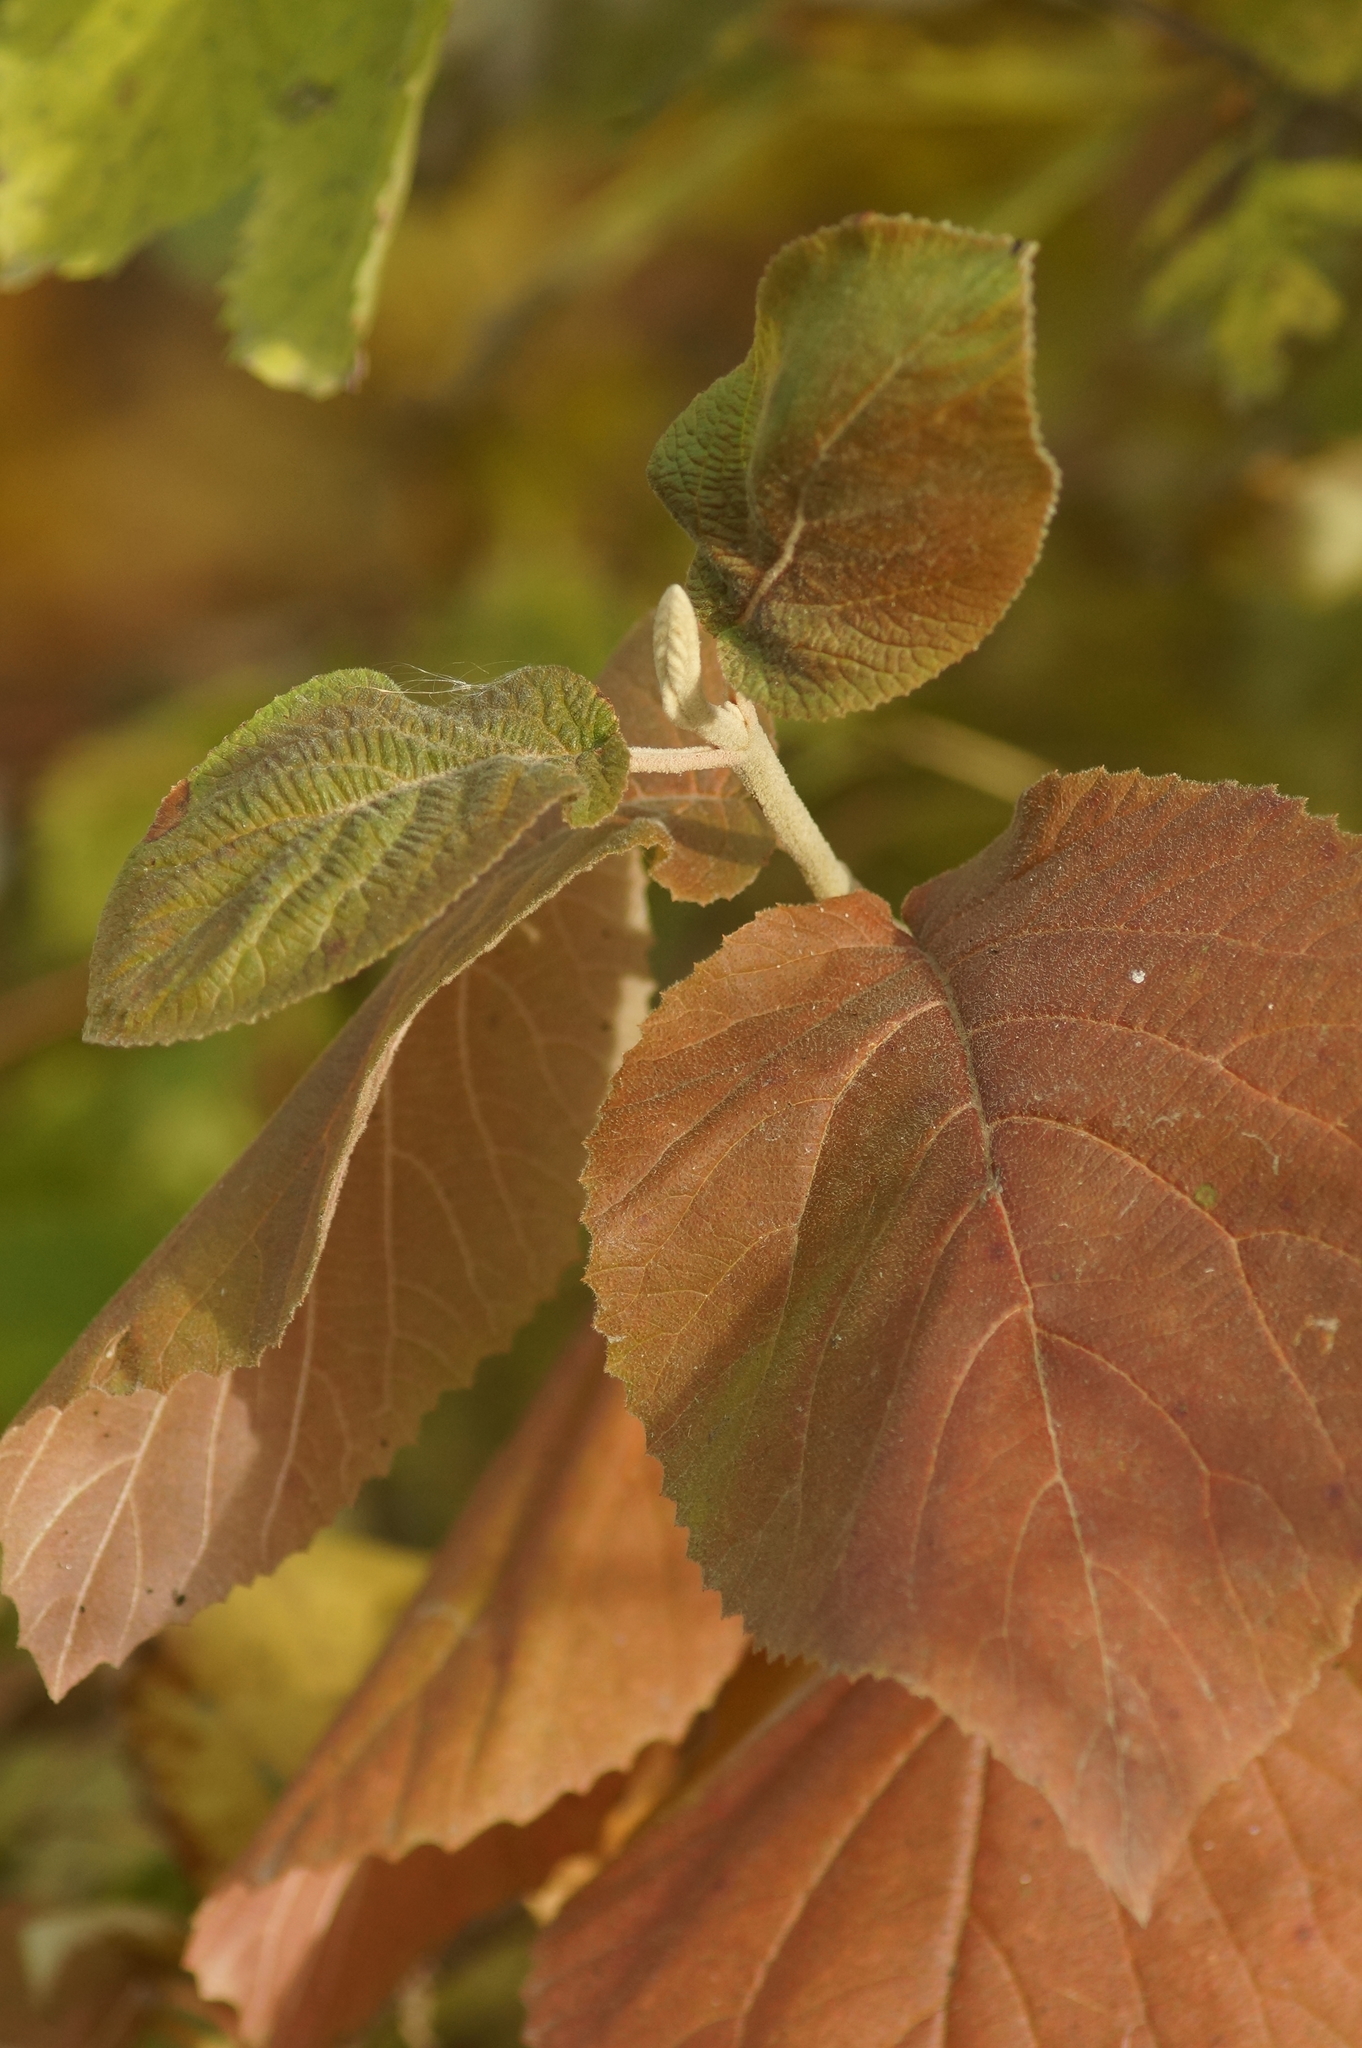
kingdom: Plantae
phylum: Tracheophyta
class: Magnoliopsida
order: Dipsacales
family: Viburnaceae
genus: Viburnum
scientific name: Viburnum lantana
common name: Wayfaring tree
